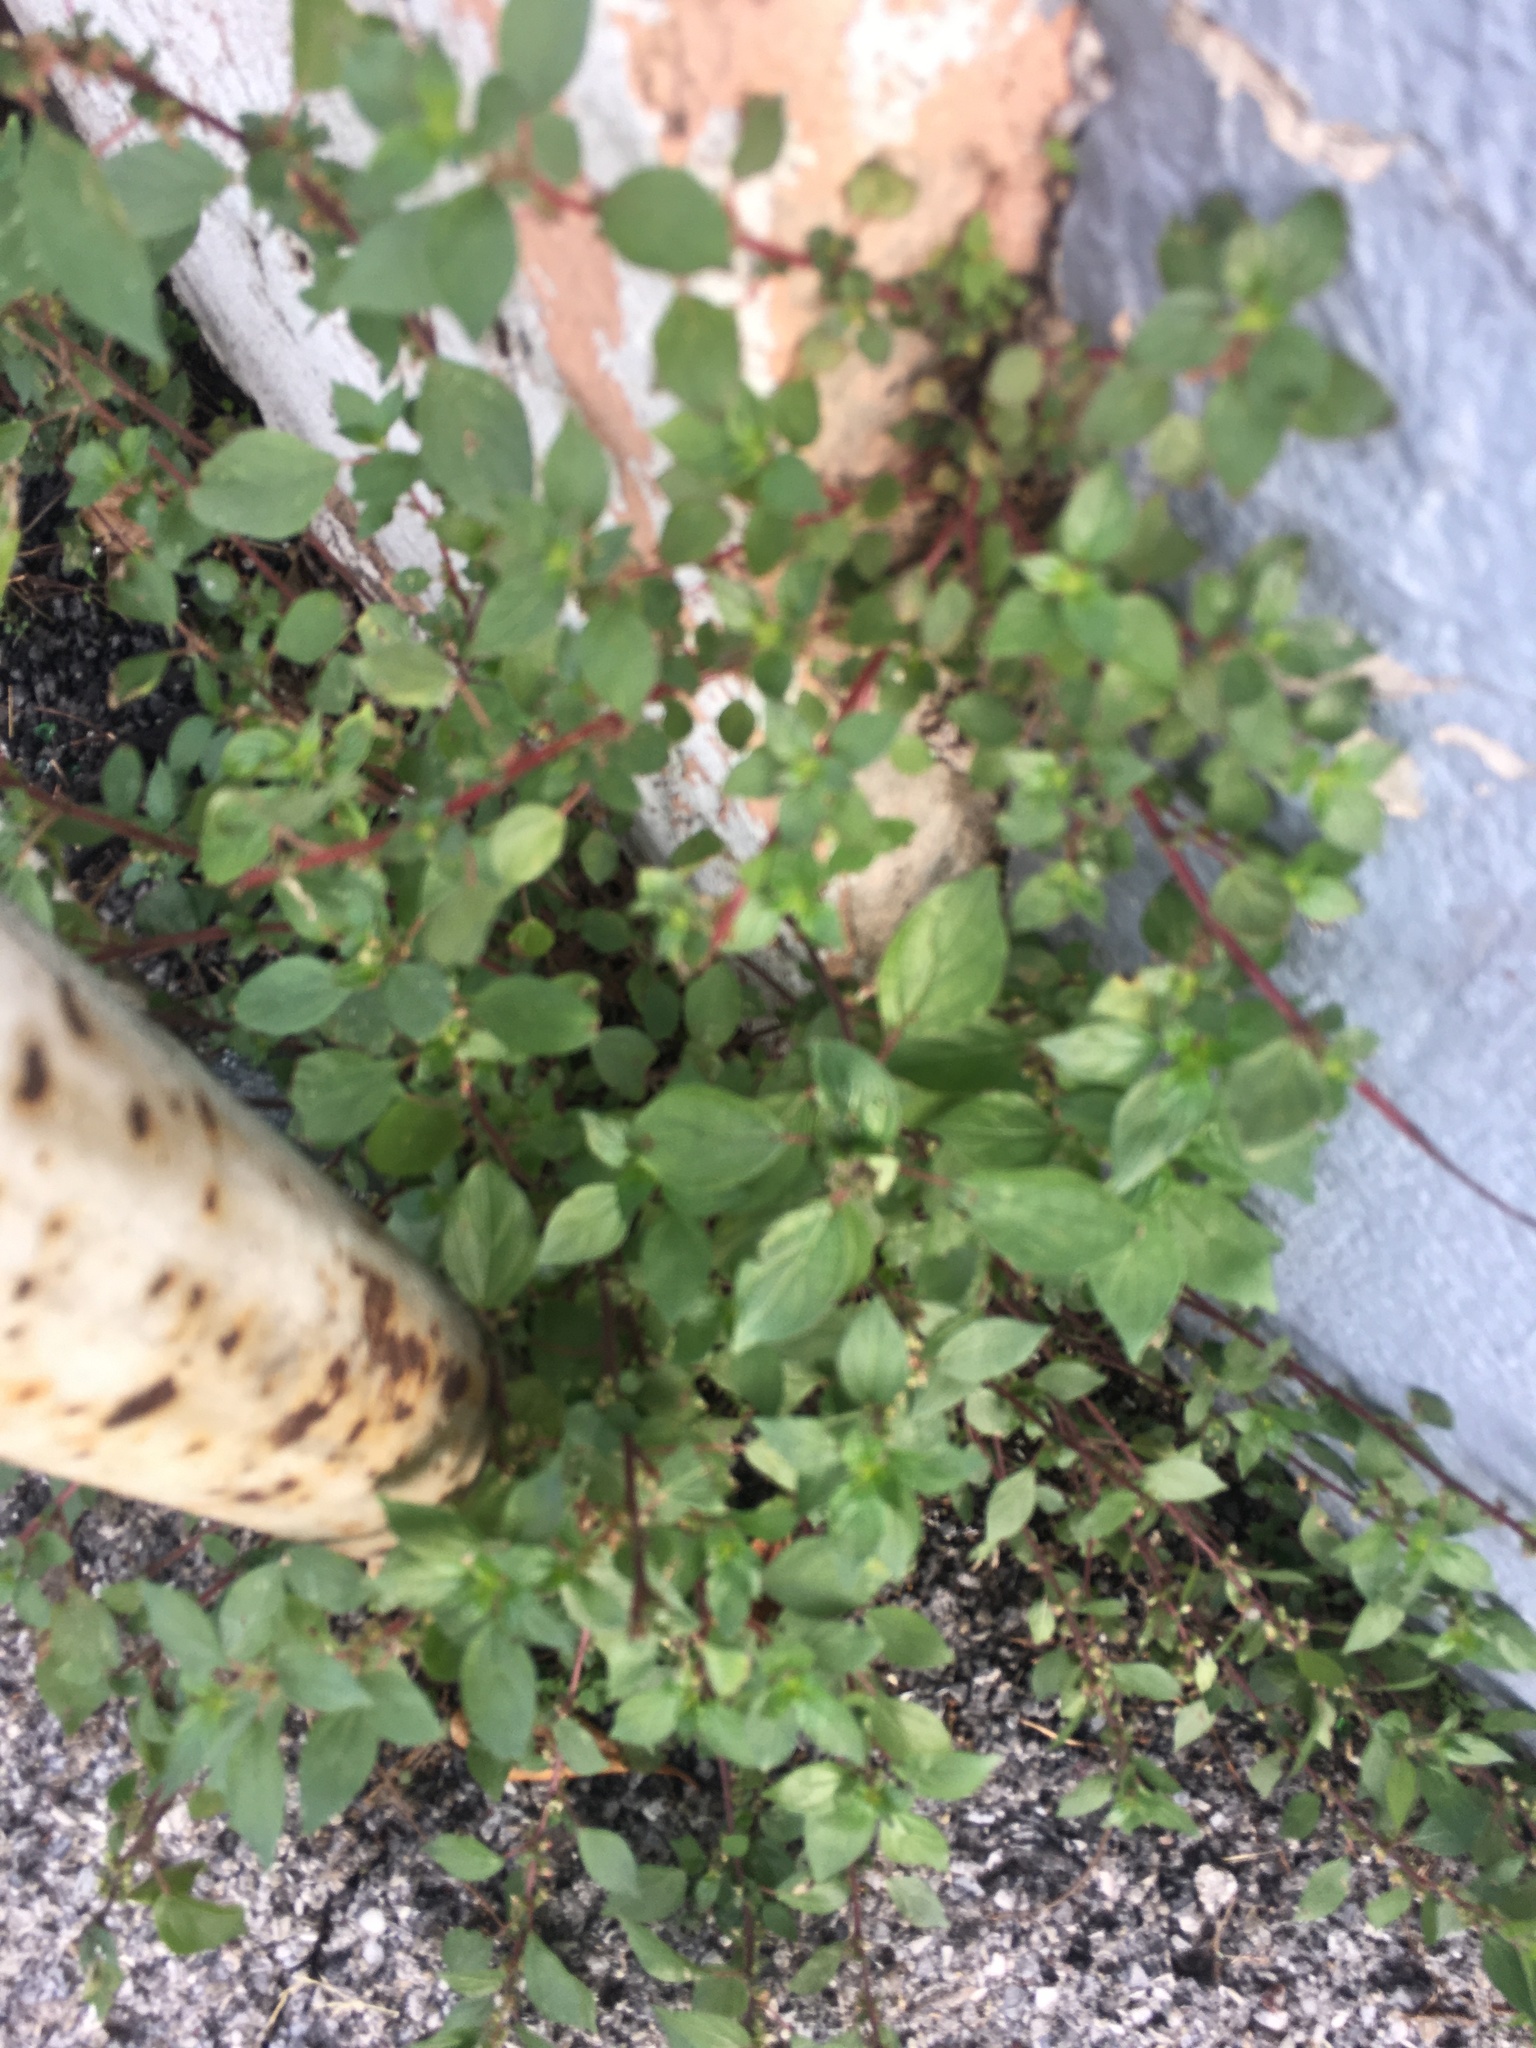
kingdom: Plantae
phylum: Tracheophyta
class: Magnoliopsida
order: Rosales
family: Urticaceae
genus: Parietaria
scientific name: Parietaria judaica
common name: Pellitory-of-the-wall
